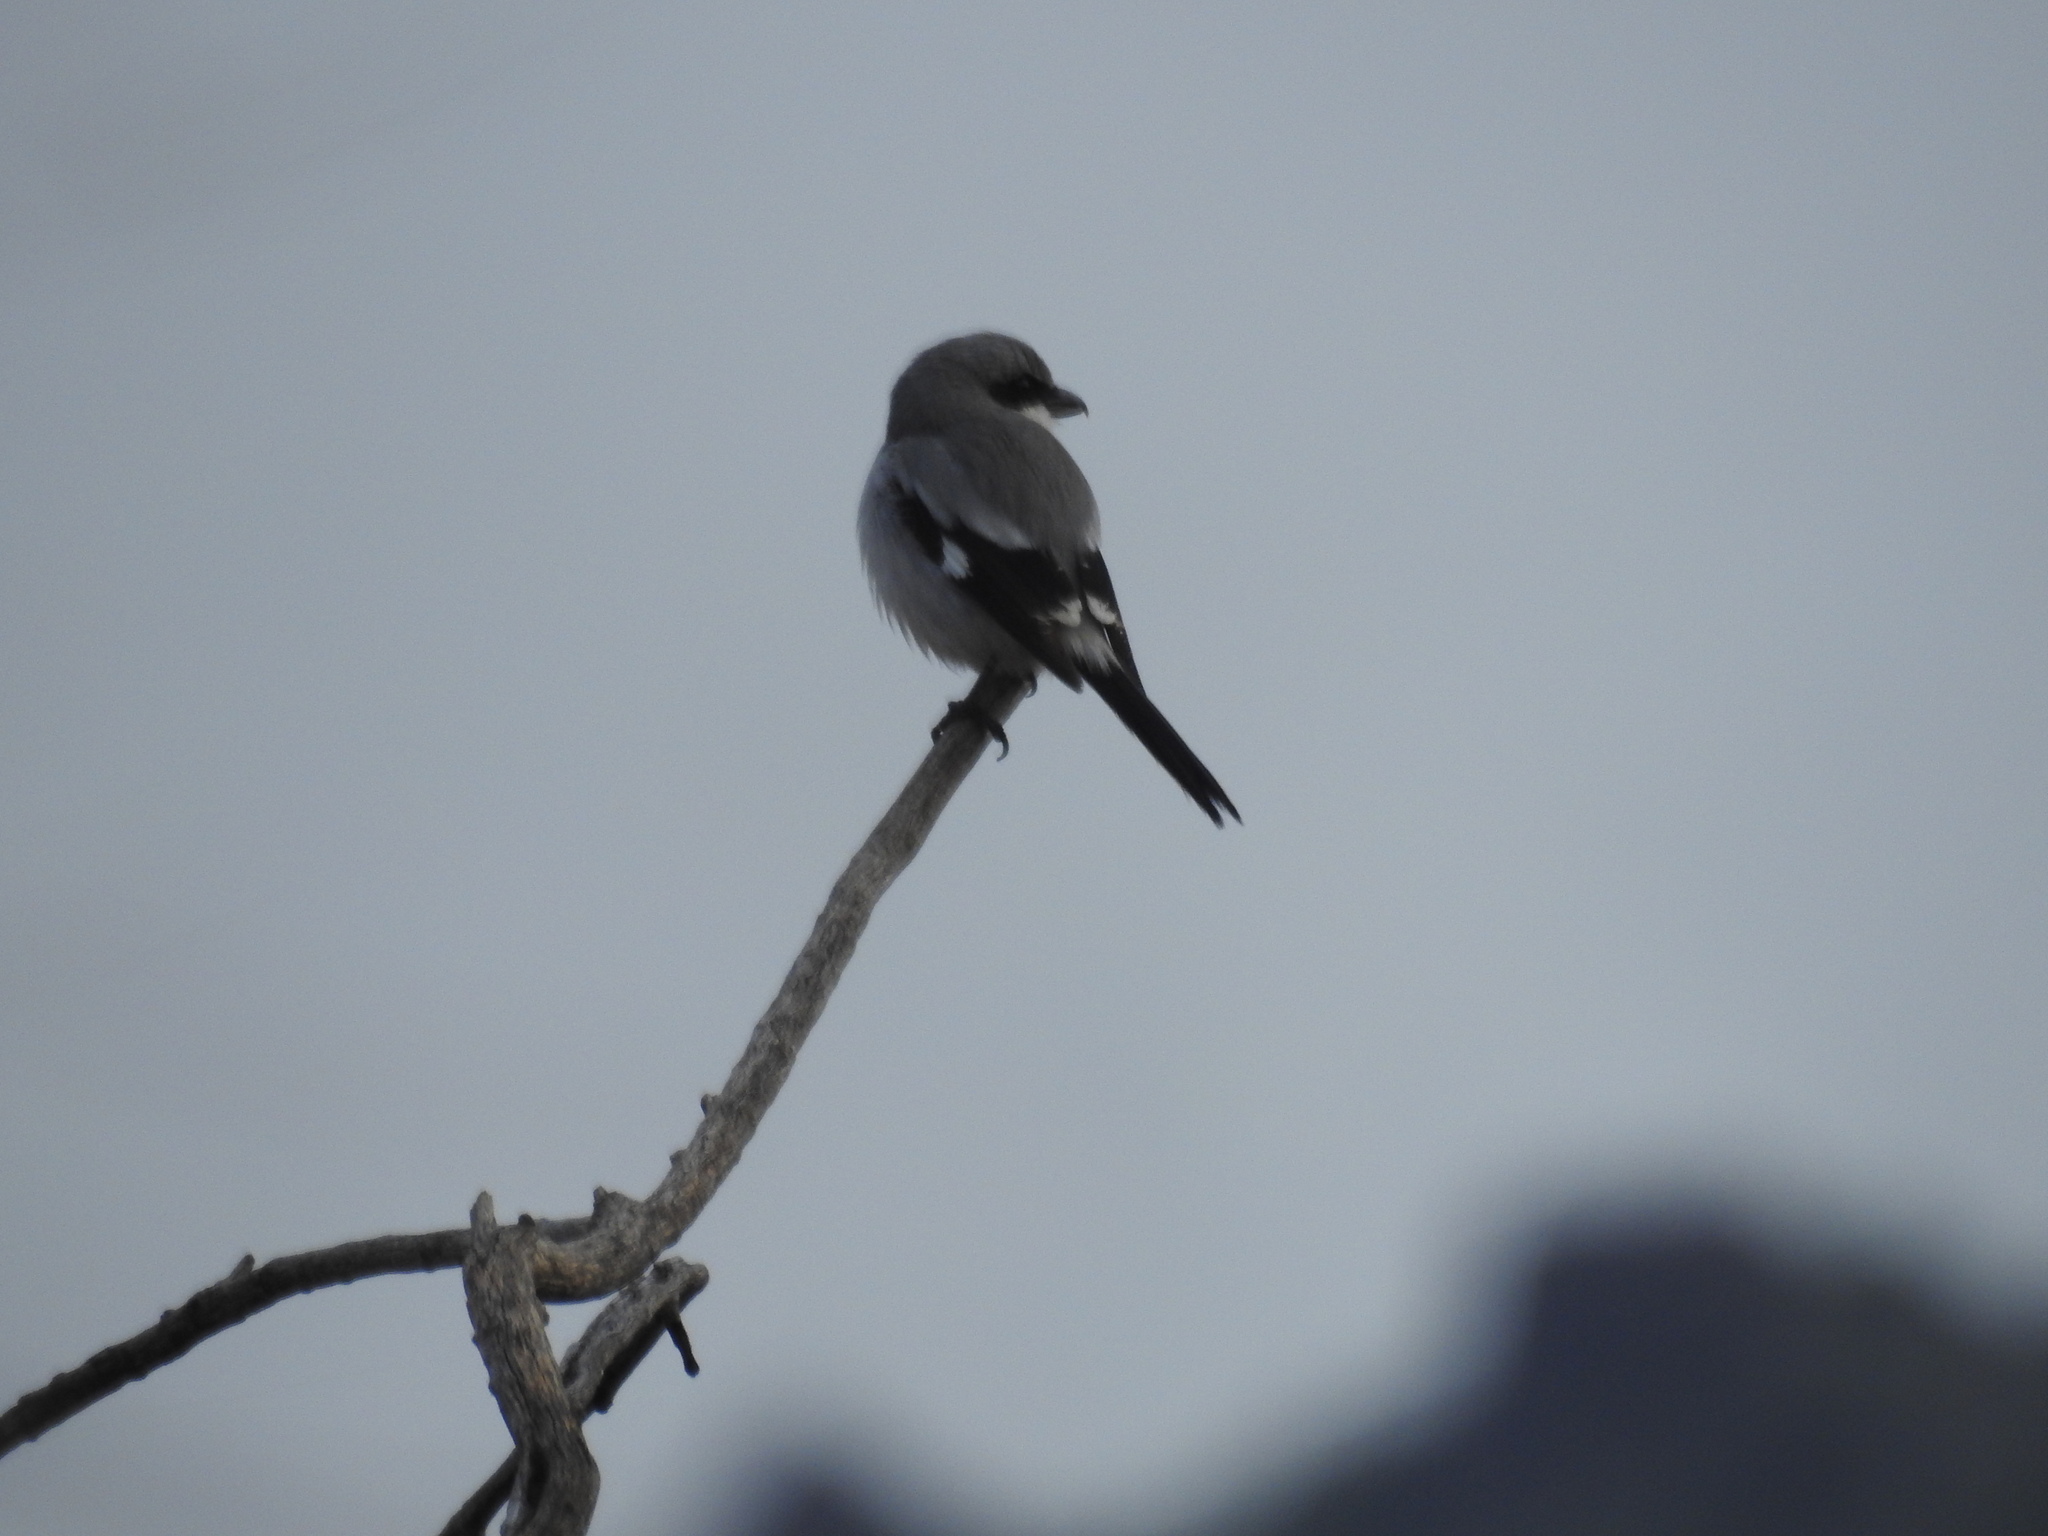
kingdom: Animalia
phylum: Chordata
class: Aves
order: Passeriformes
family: Laniidae
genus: Lanius
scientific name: Lanius ludovicianus
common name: Loggerhead shrike
